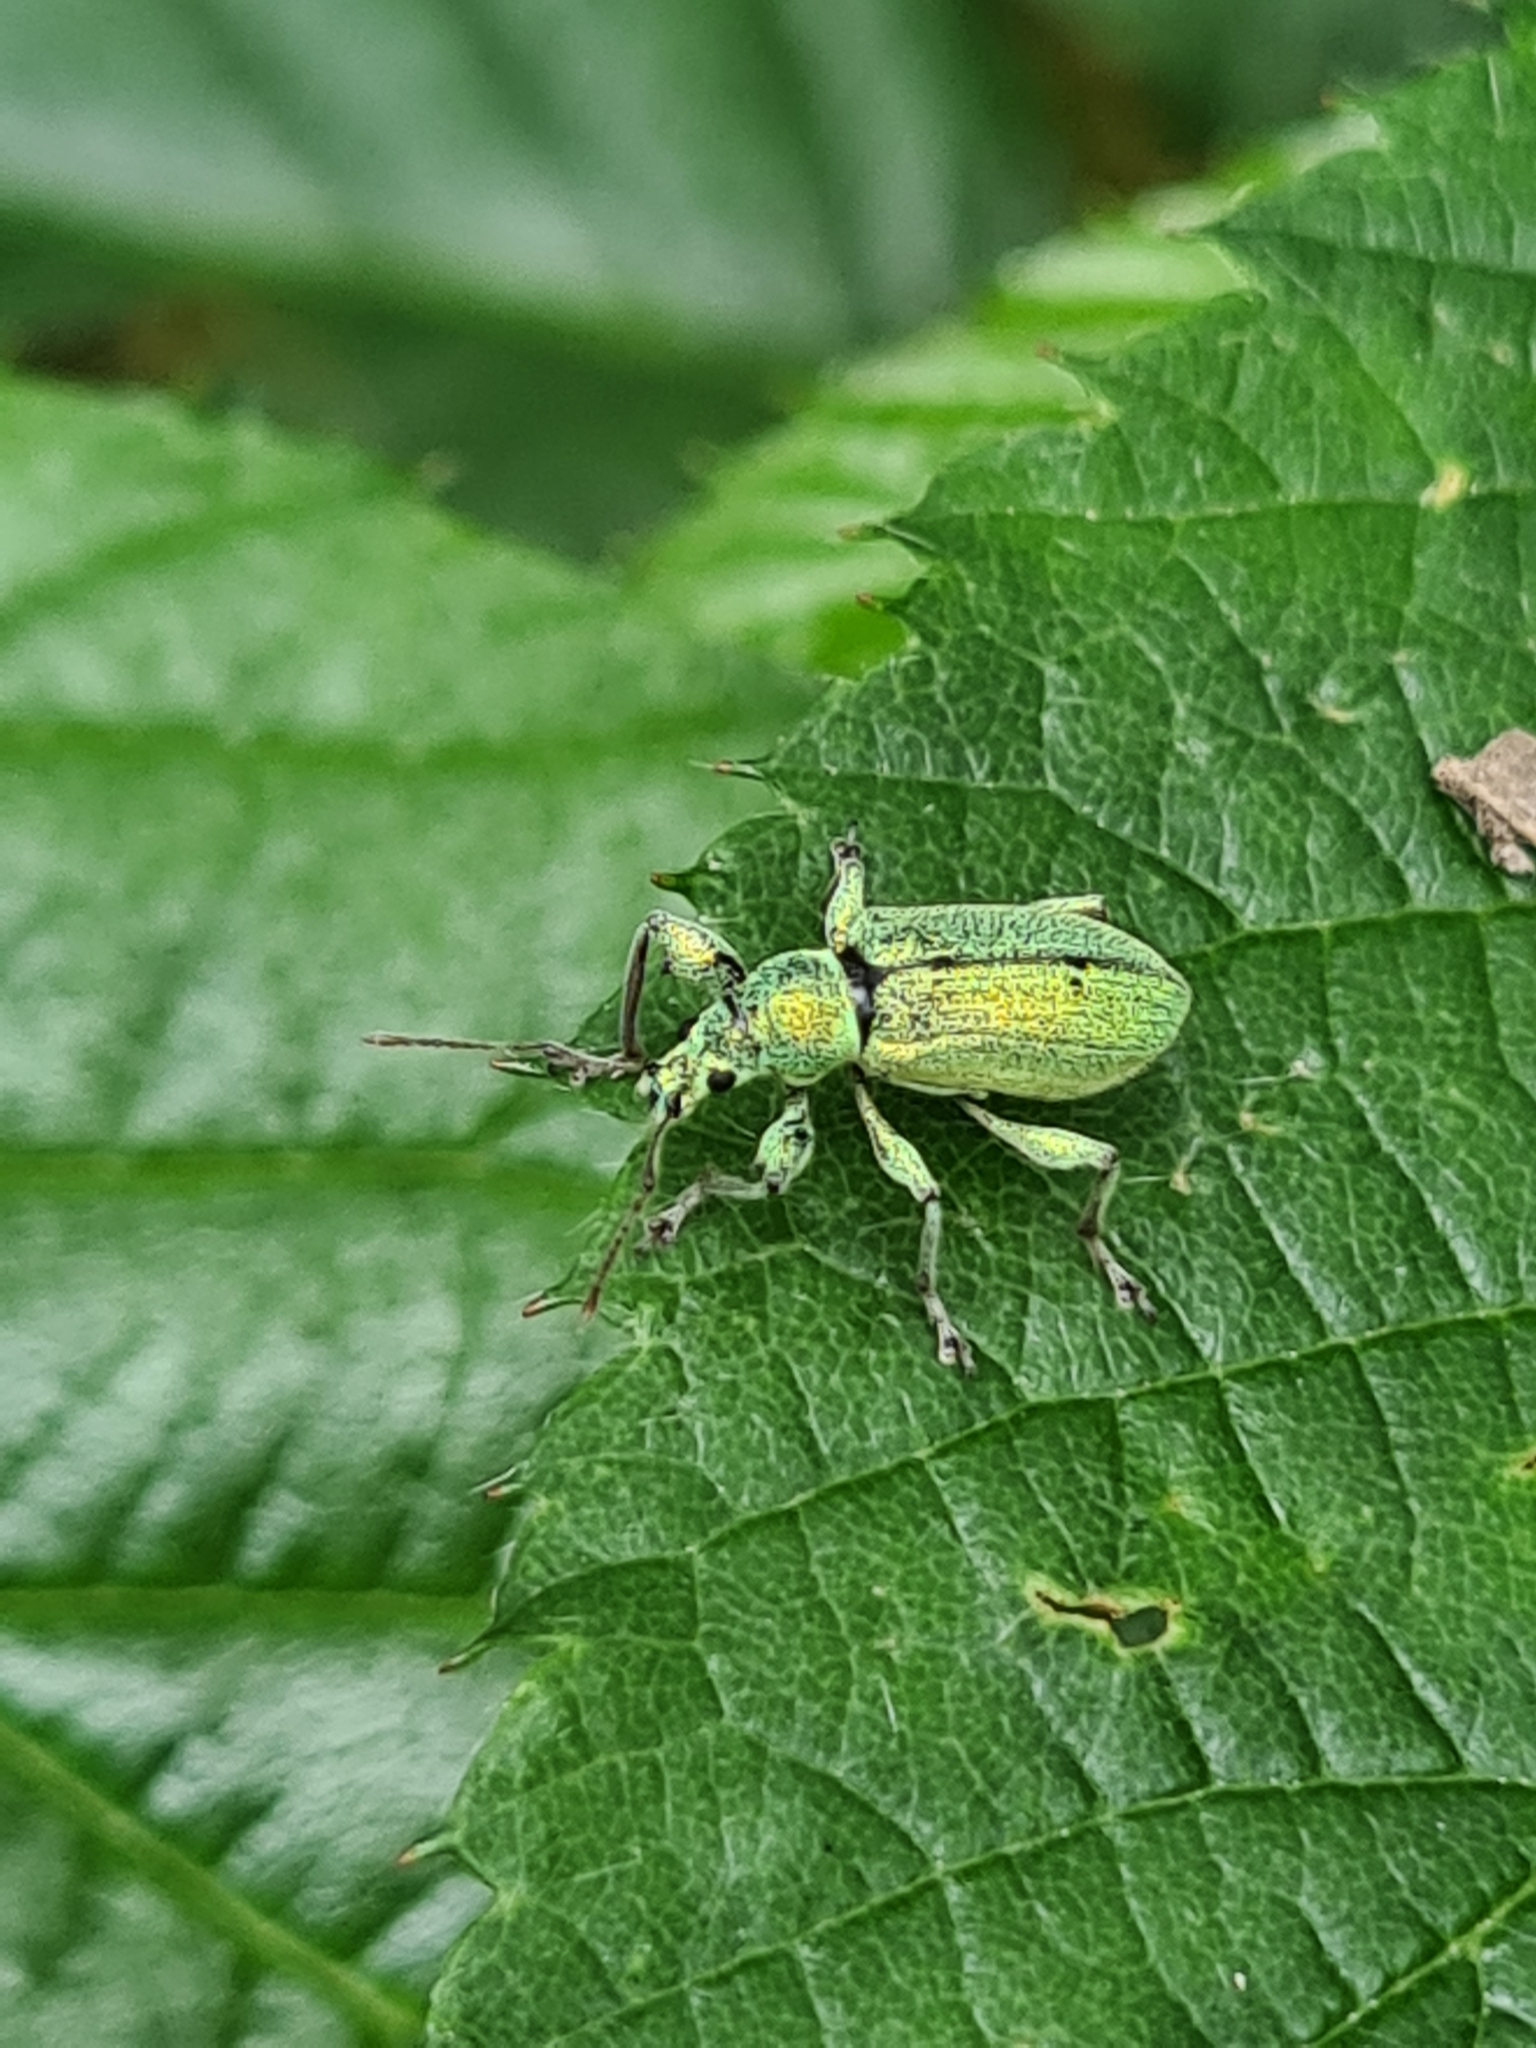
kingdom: Animalia
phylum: Arthropoda
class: Insecta
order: Coleoptera
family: Curculionidae
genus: Phyllobius
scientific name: Phyllobius arborator
